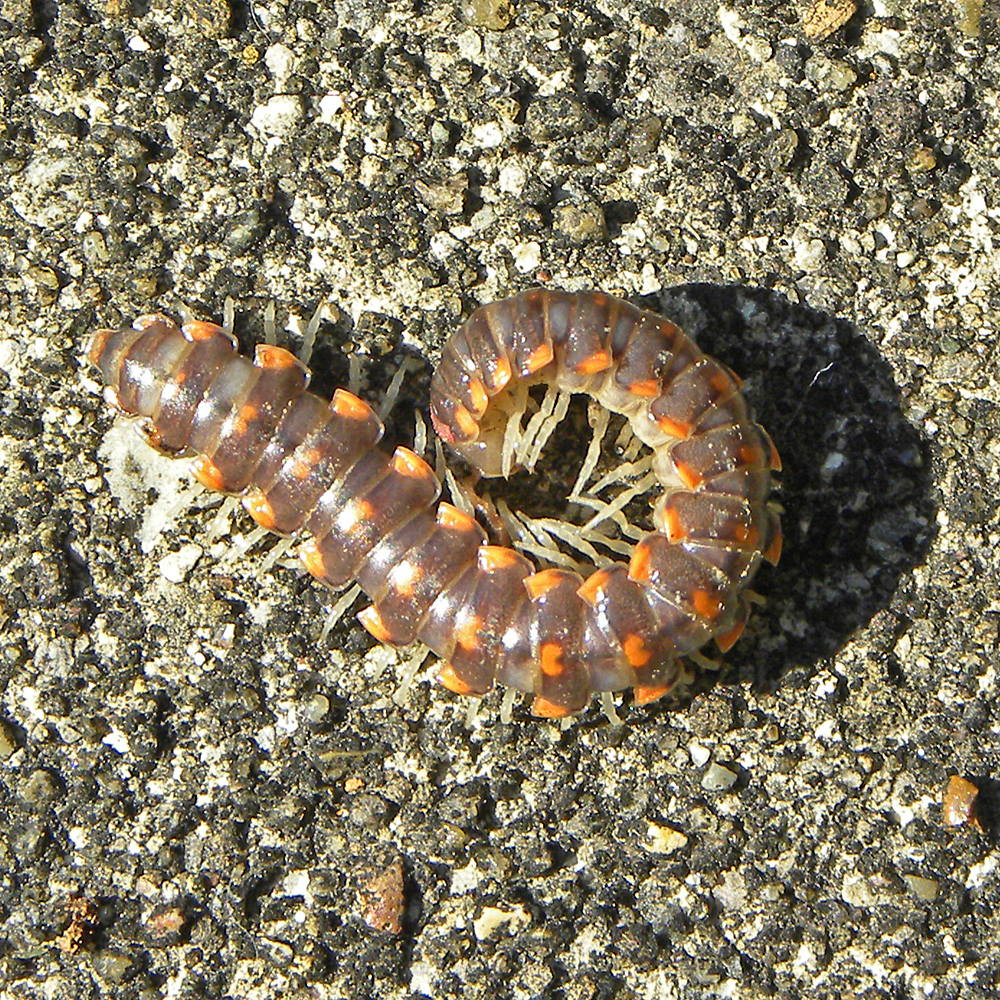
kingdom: Animalia
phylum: Arthropoda
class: Diplopoda
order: Polydesmida
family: Xystodesmidae
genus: Euryurus
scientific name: Euryurus leachii
